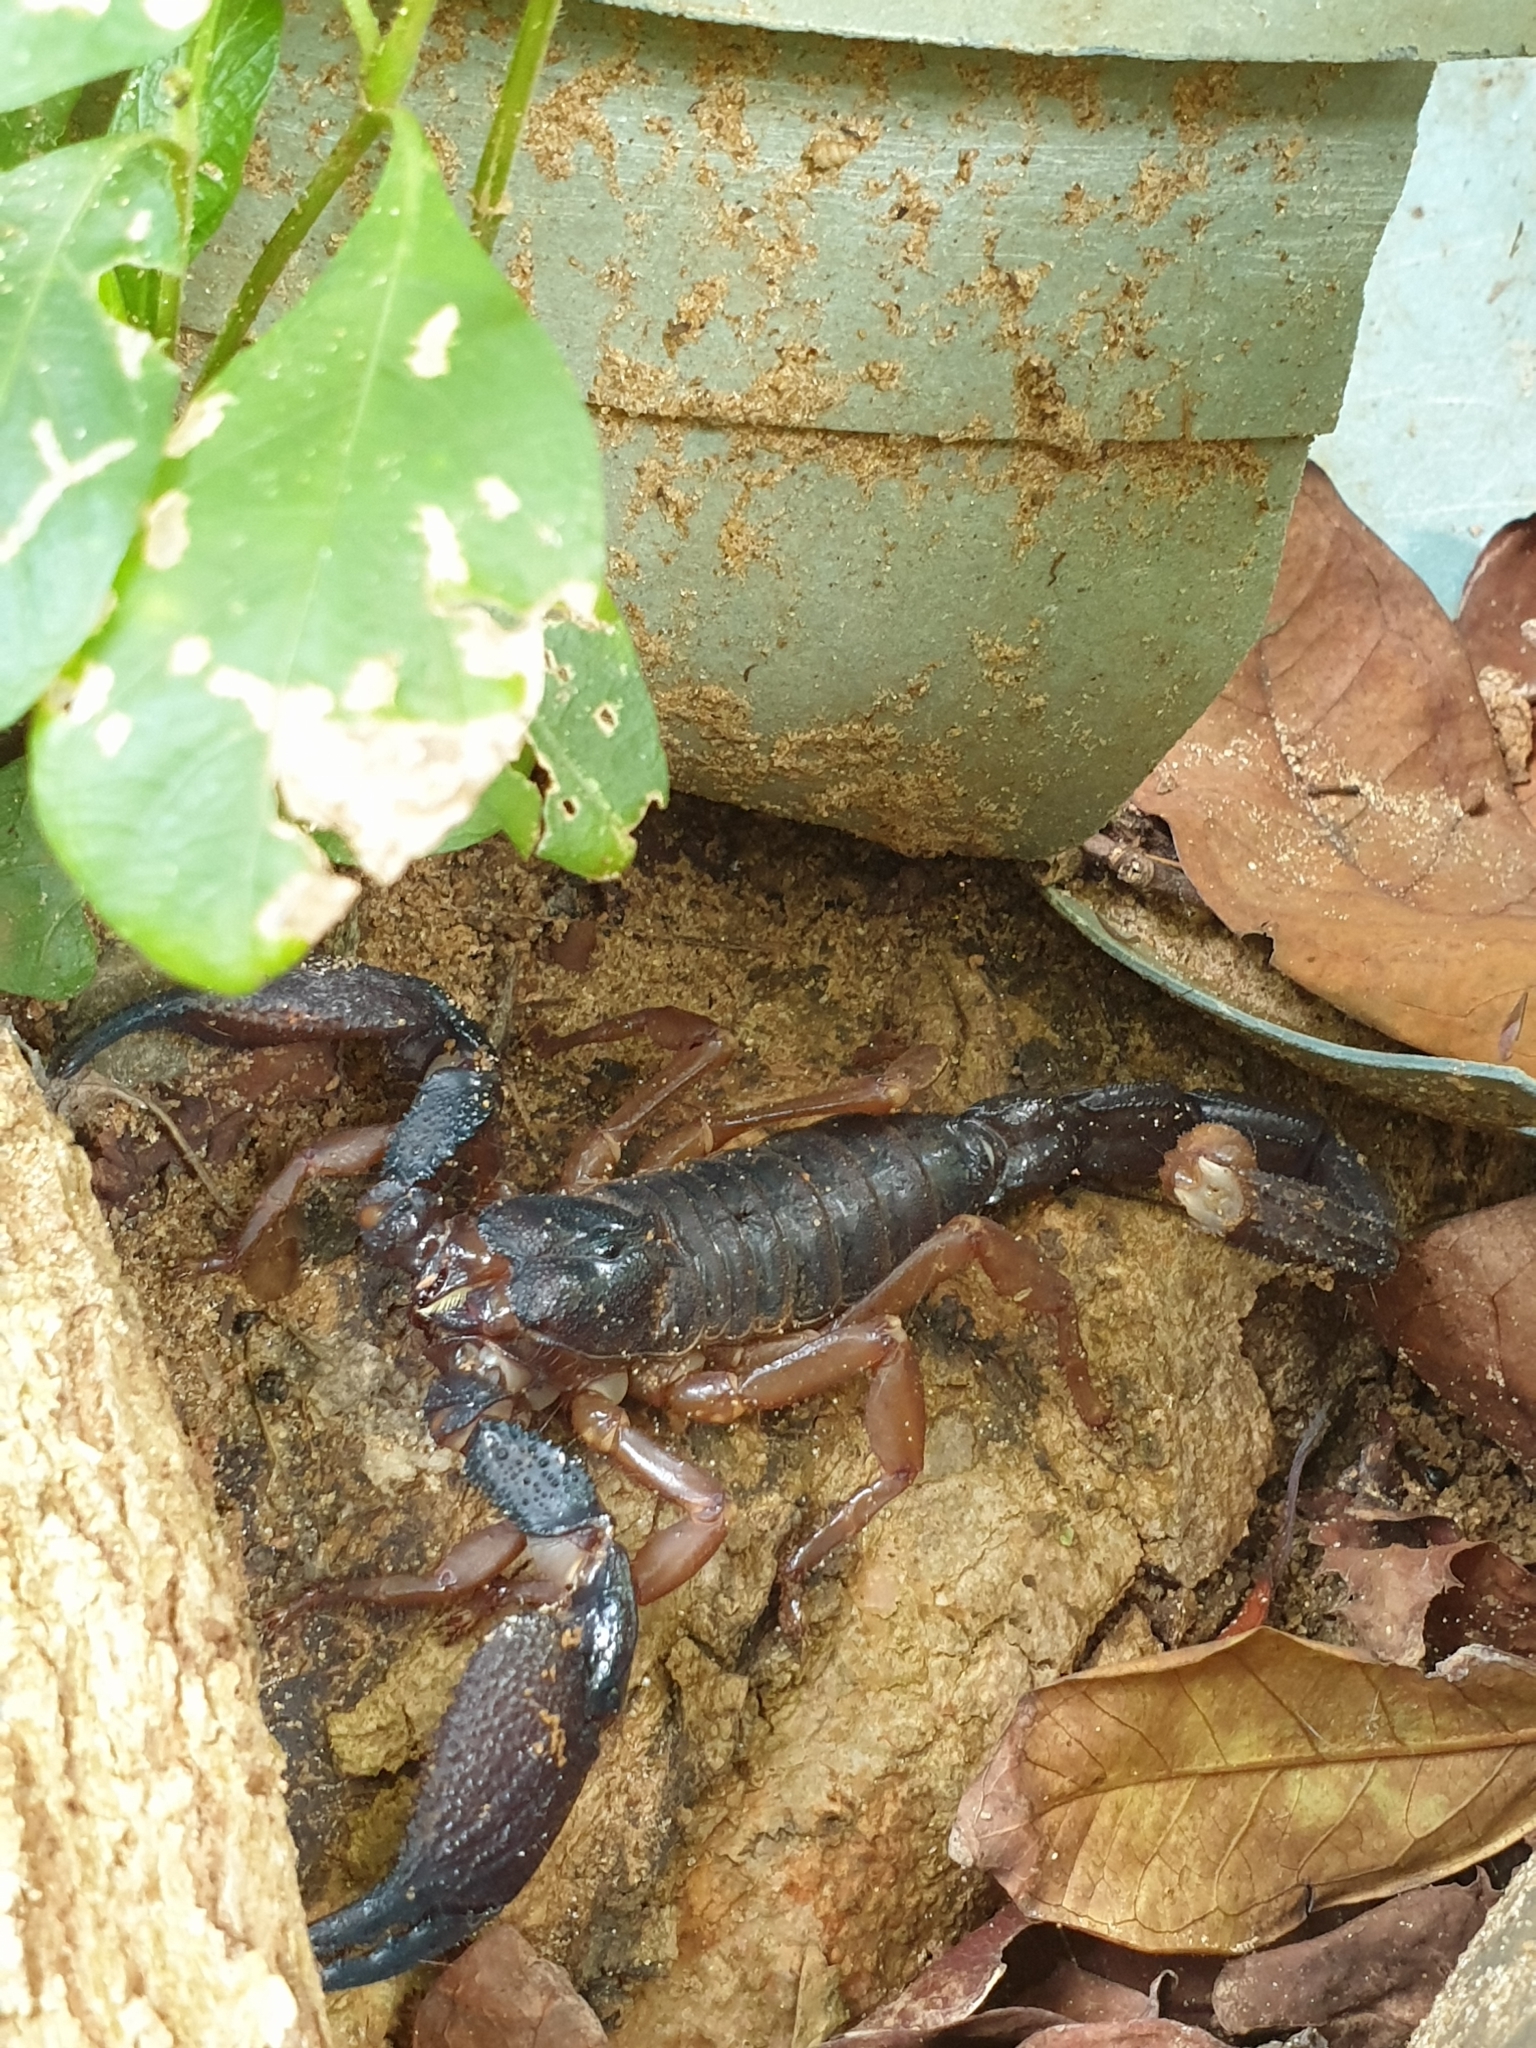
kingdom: Animalia
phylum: Arthropoda
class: Arachnida
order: Scorpiones
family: Scorpionidae
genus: Gigantometrus
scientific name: Gigantometrus titanicus
